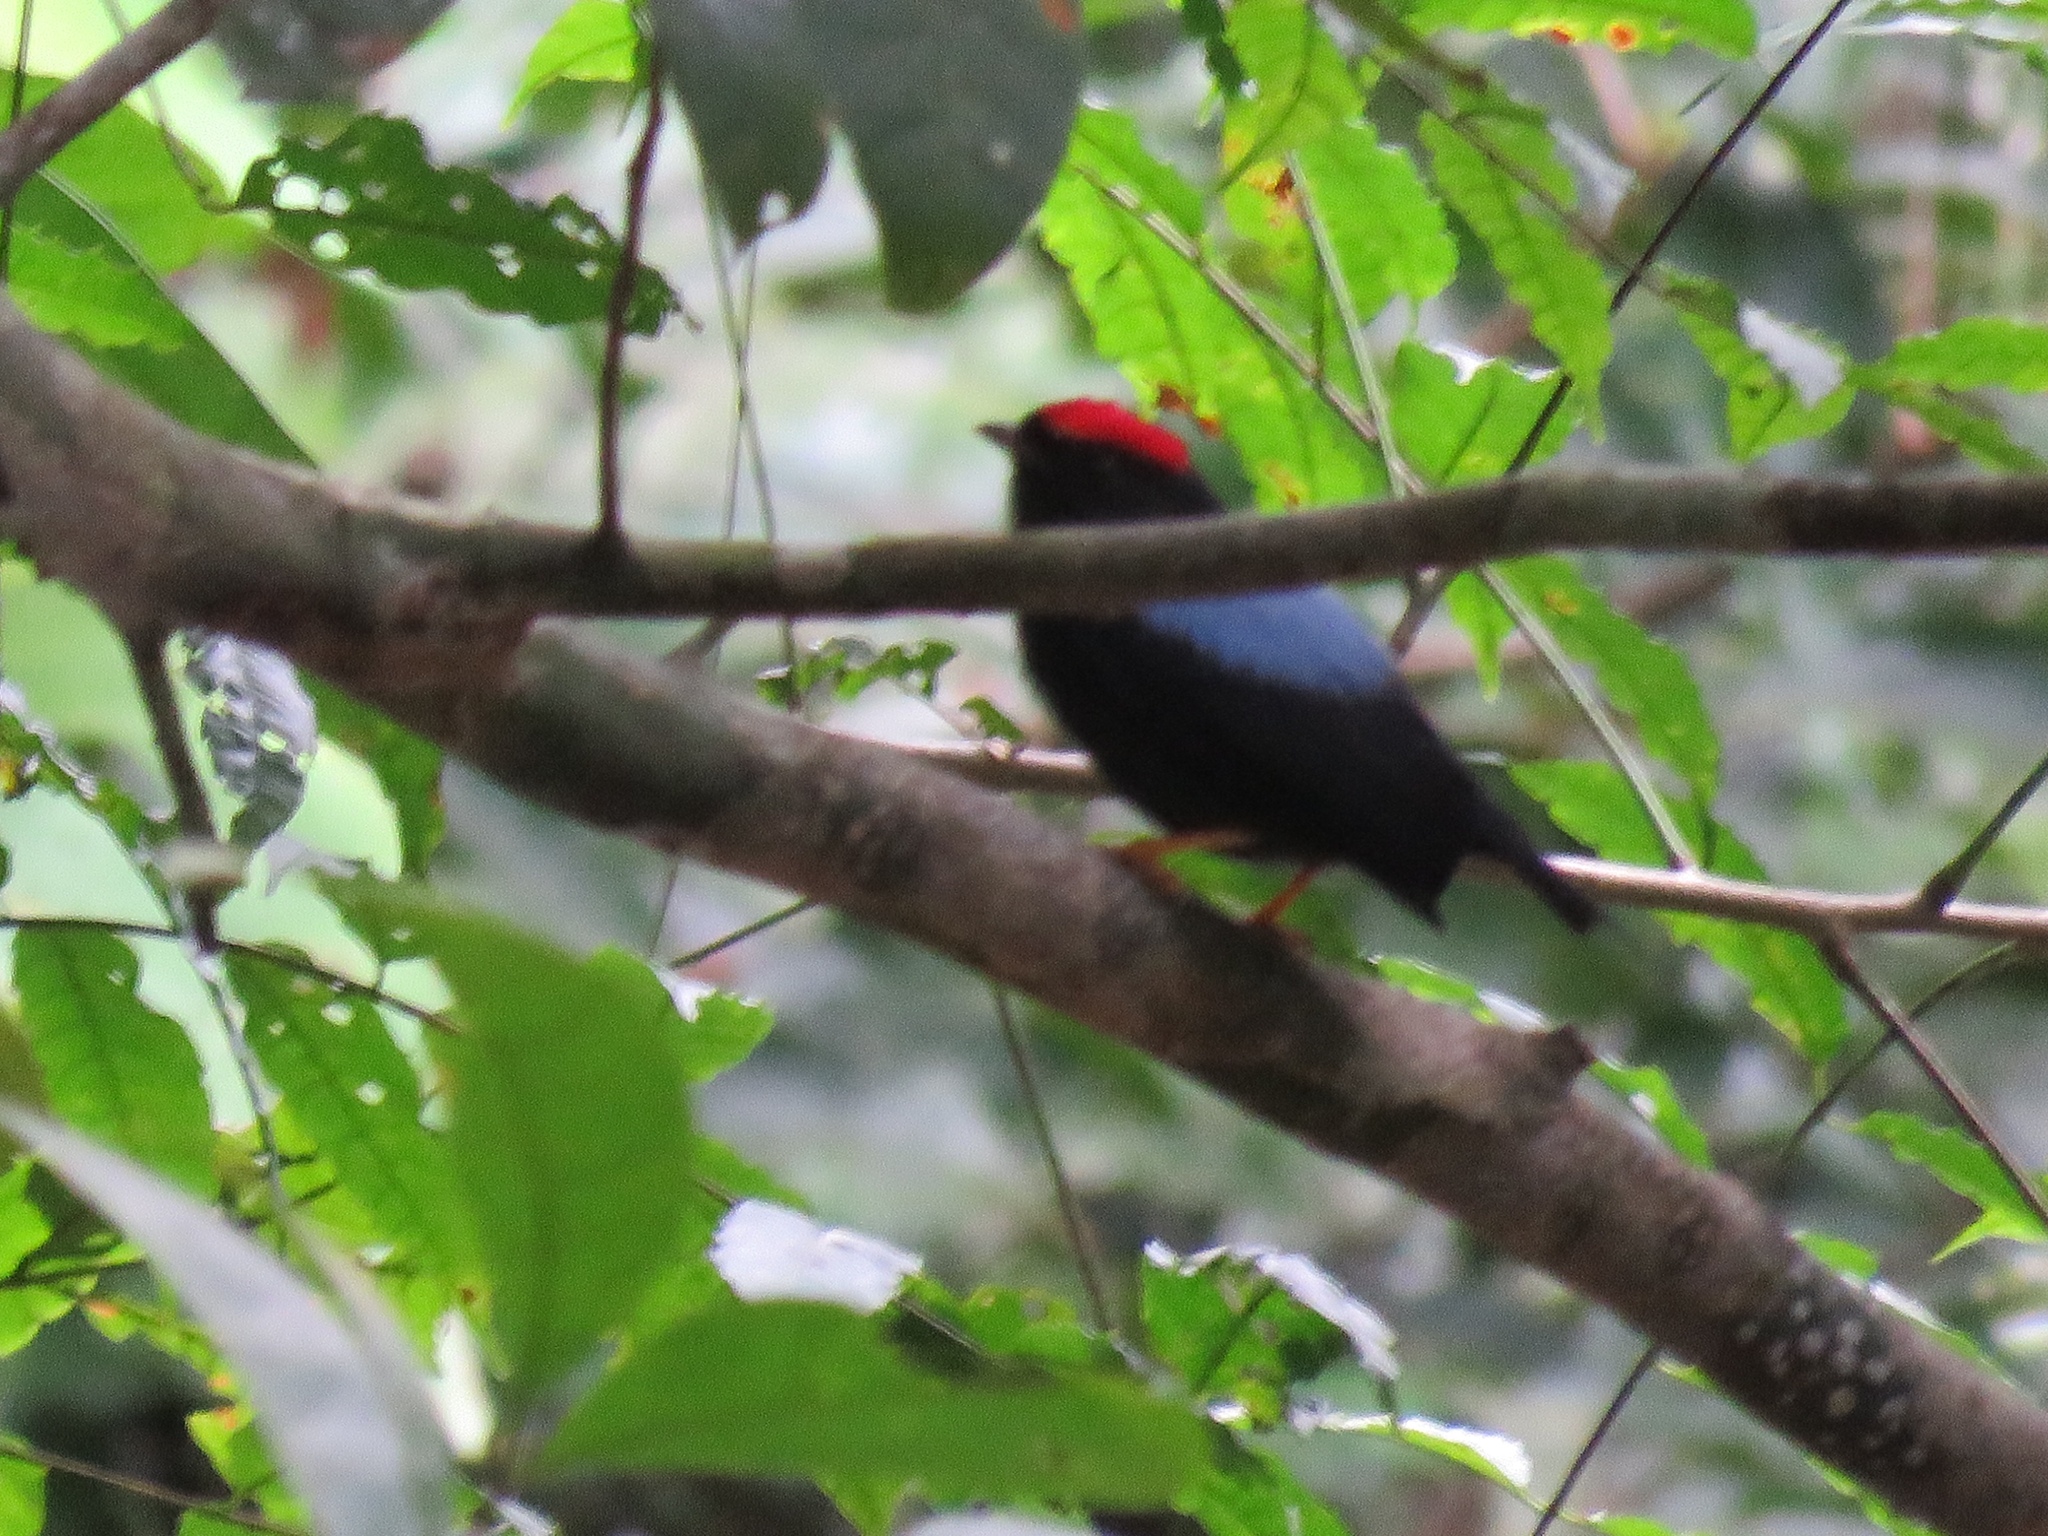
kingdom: Animalia
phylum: Chordata
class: Aves
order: Passeriformes
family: Pipridae
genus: Chiroxiphia
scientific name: Chiroxiphia lanceolata
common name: Lance-tailed manakin
